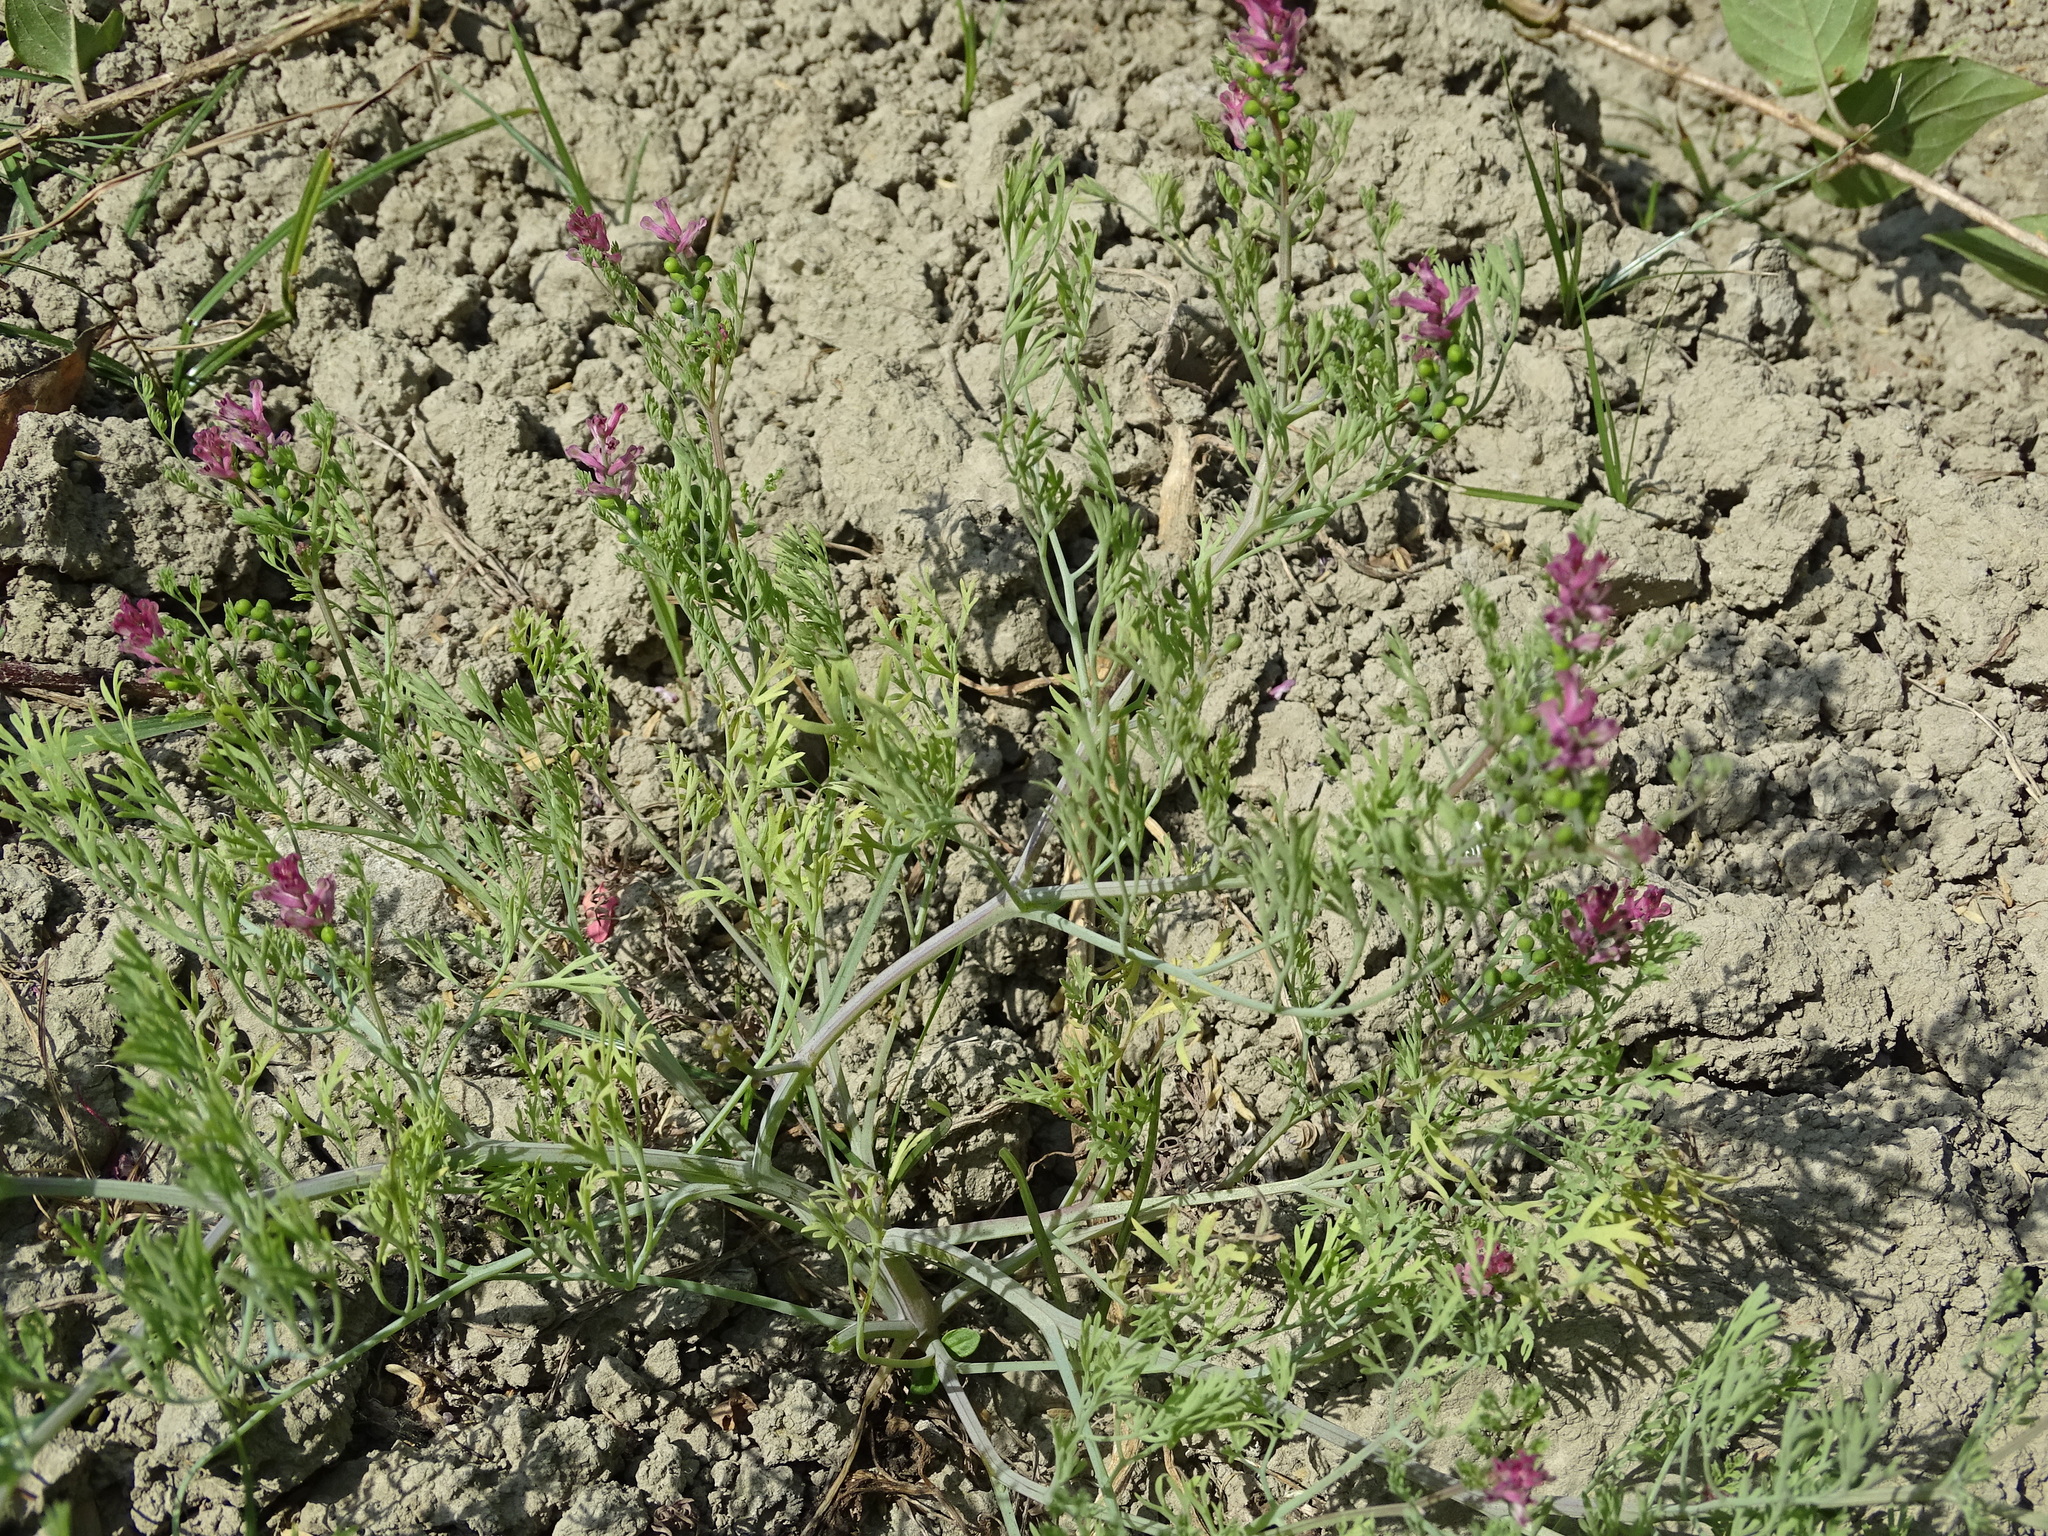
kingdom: Plantae
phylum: Tracheophyta
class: Magnoliopsida
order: Ranunculales
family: Papaveraceae
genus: Fumaria
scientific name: Fumaria vaillantii
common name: Few-flowered fumitory
